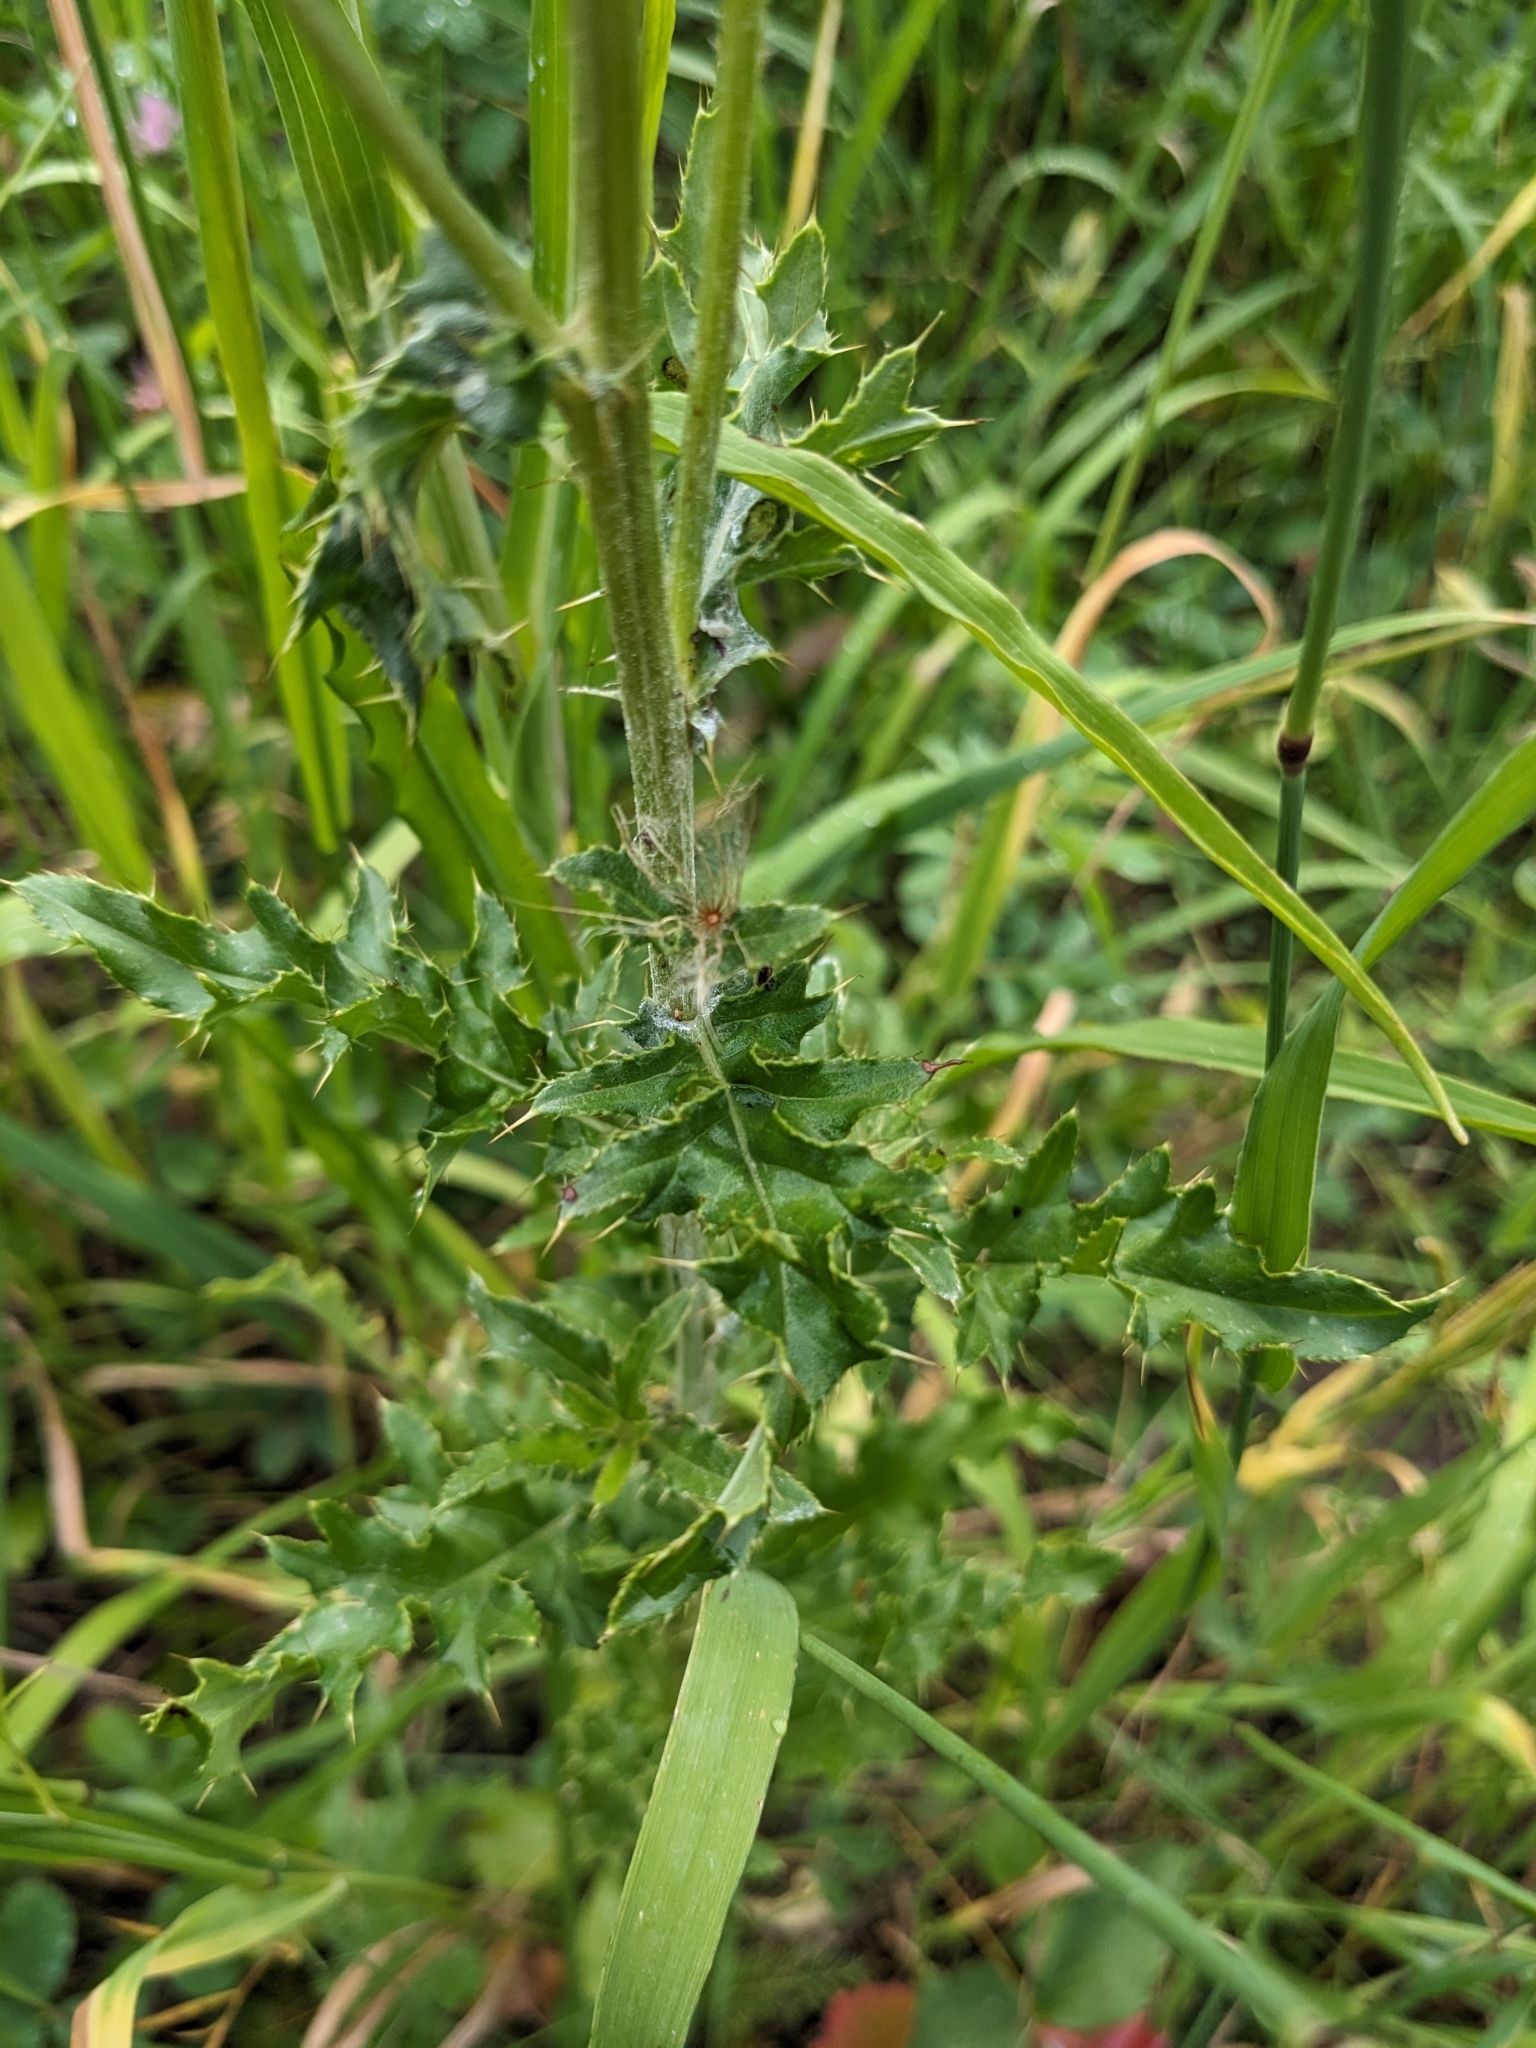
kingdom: Plantae
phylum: Tracheophyta
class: Magnoliopsida
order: Asterales
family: Asteraceae
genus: Cirsium
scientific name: Cirsium arvense
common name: Creeping thistle
